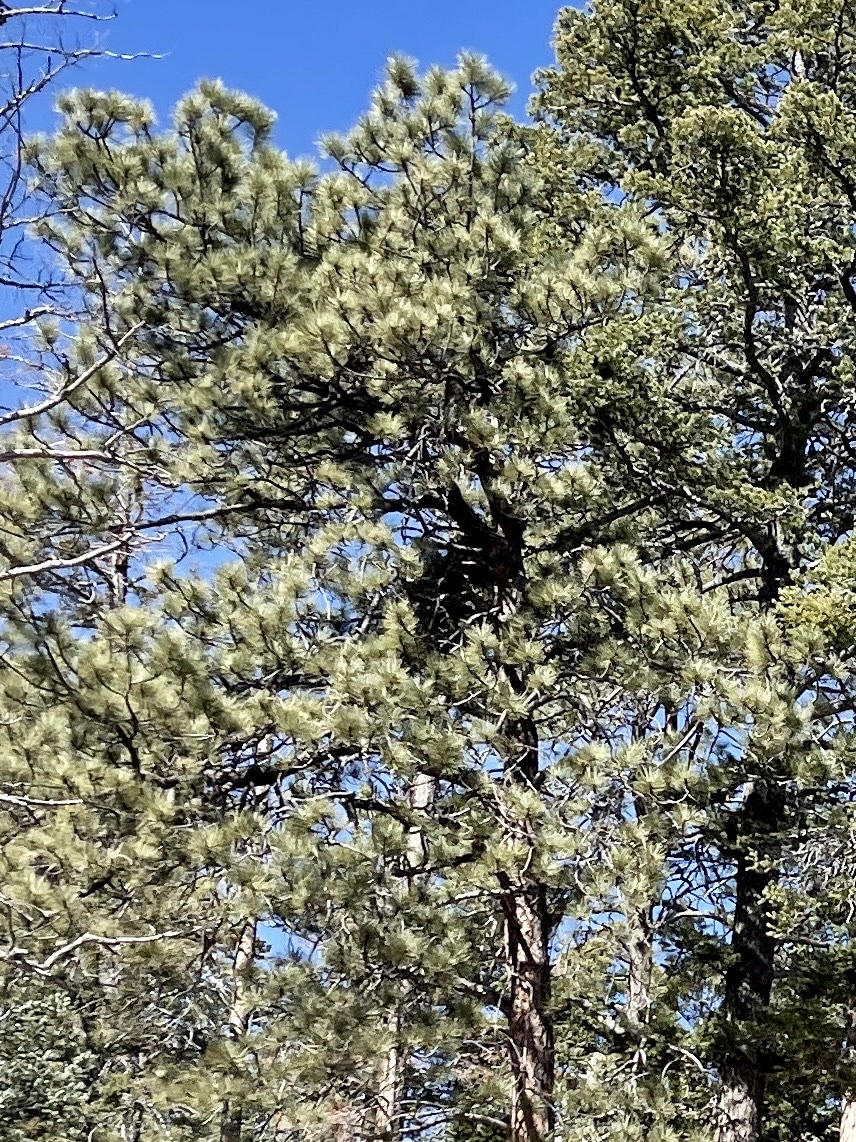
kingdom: Plantae
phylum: Tracheophyta
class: Pinopsida
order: Pinales
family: Pinaceae
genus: Pinus
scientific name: Pinus ponderosa
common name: Western yellow-pine
